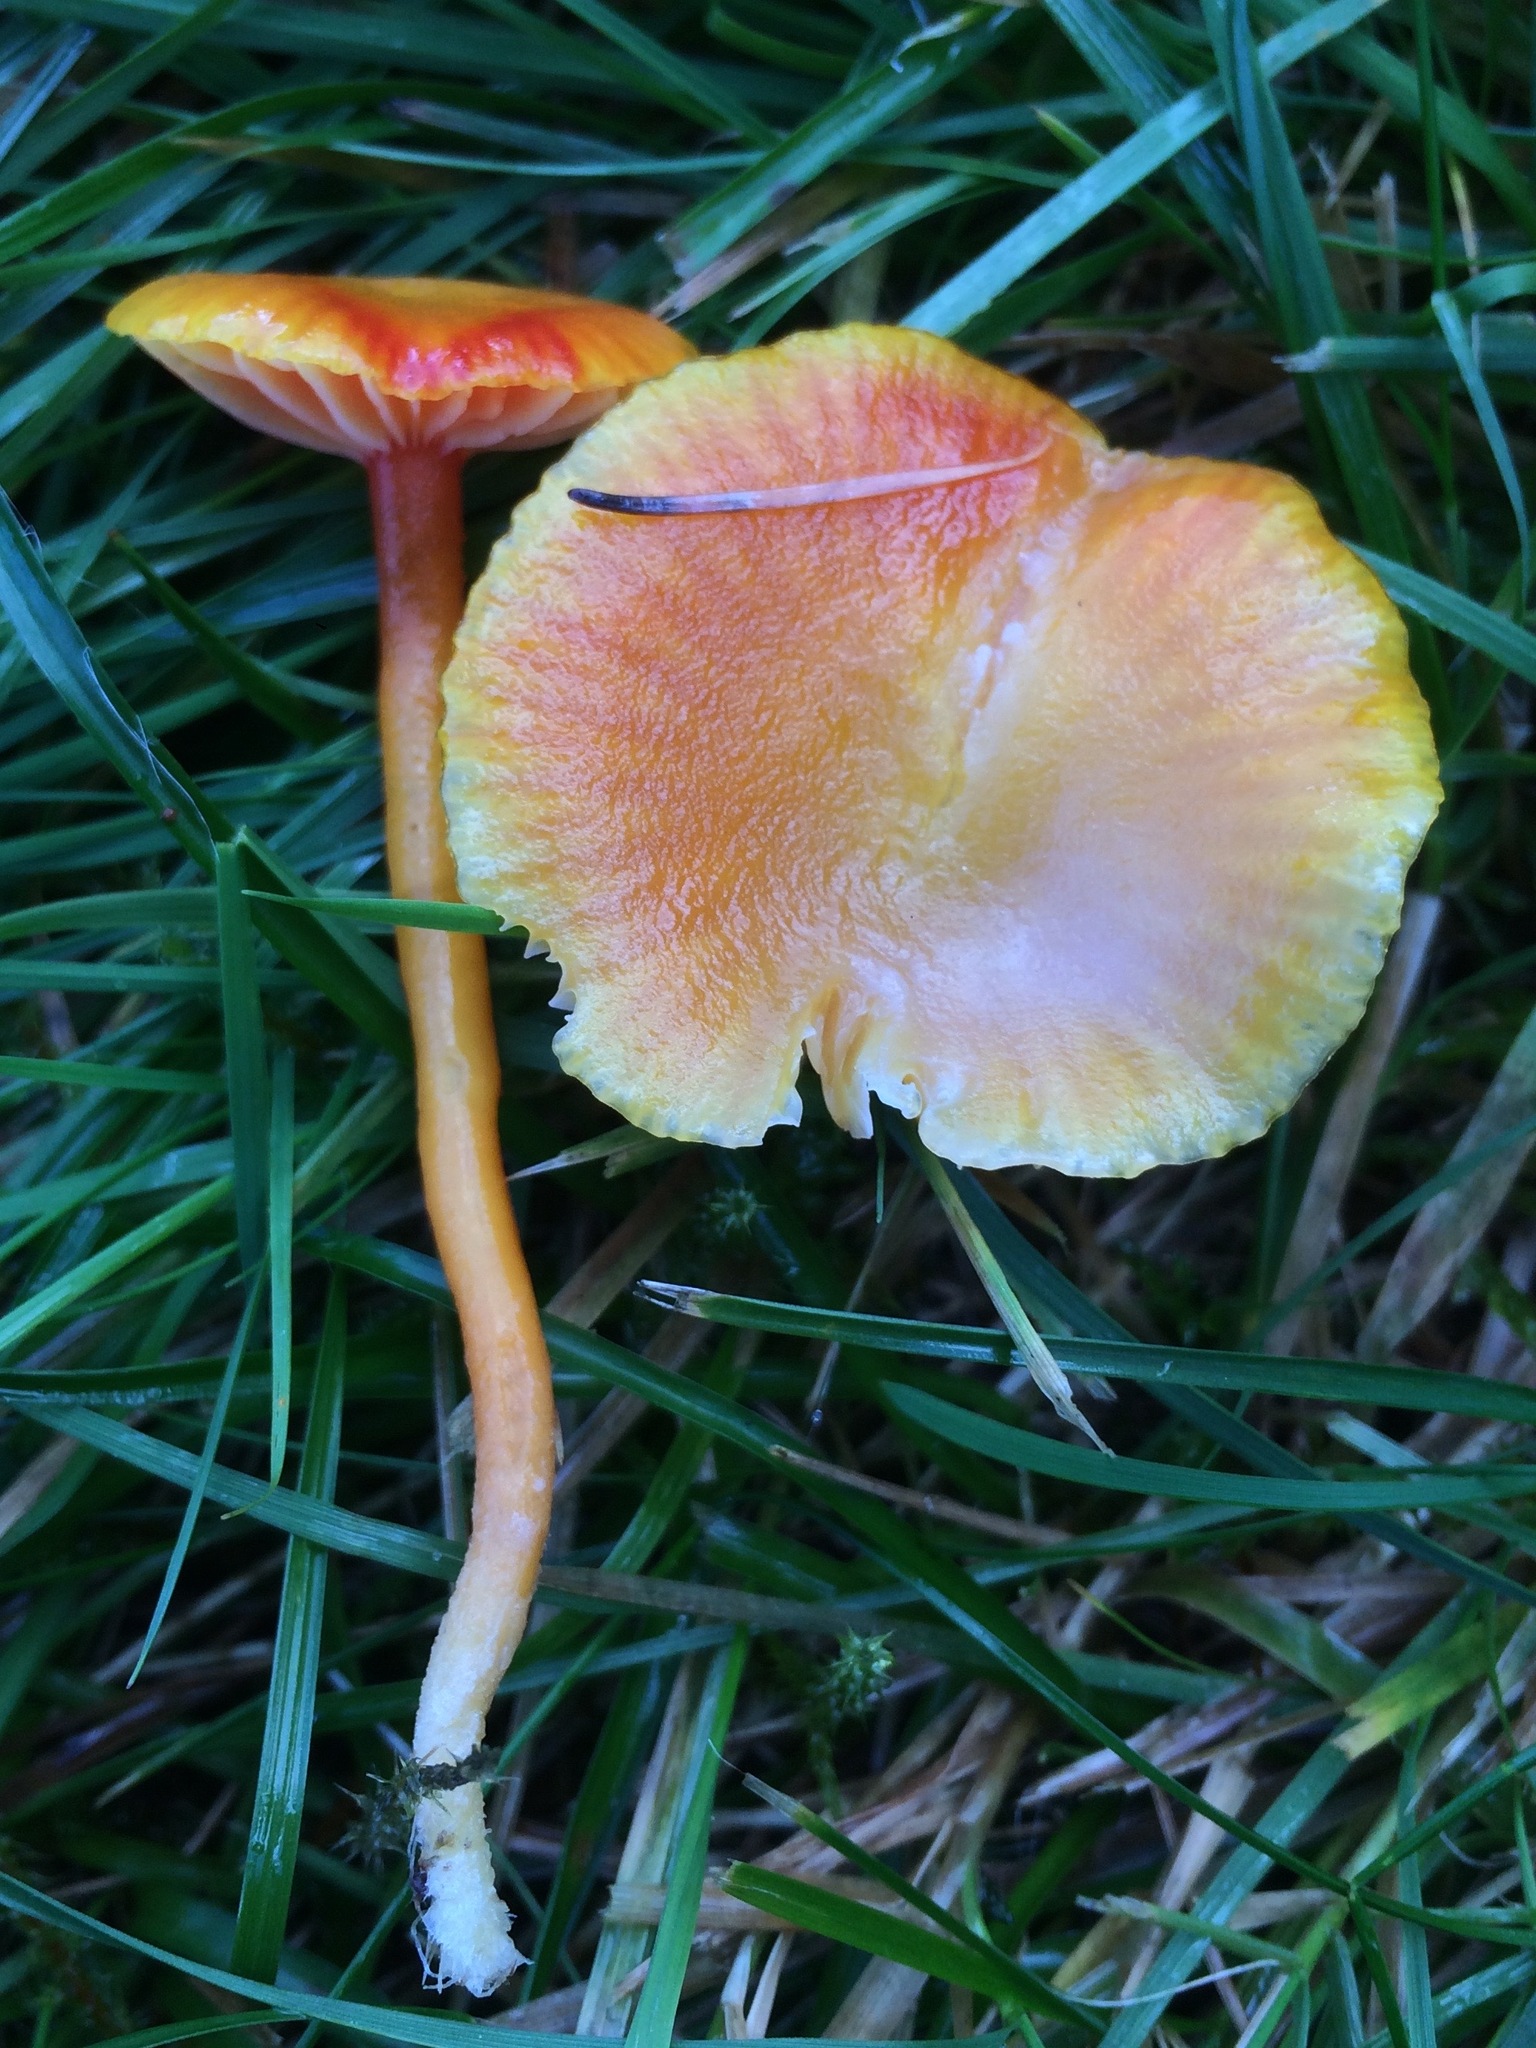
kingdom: Fungi
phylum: Basidiomycota
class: Agaricomycetes
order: Agaricales
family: Hygrophoraceae
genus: Hygrocybe
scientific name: Hygrocybe insipida
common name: Spangle waxcap
